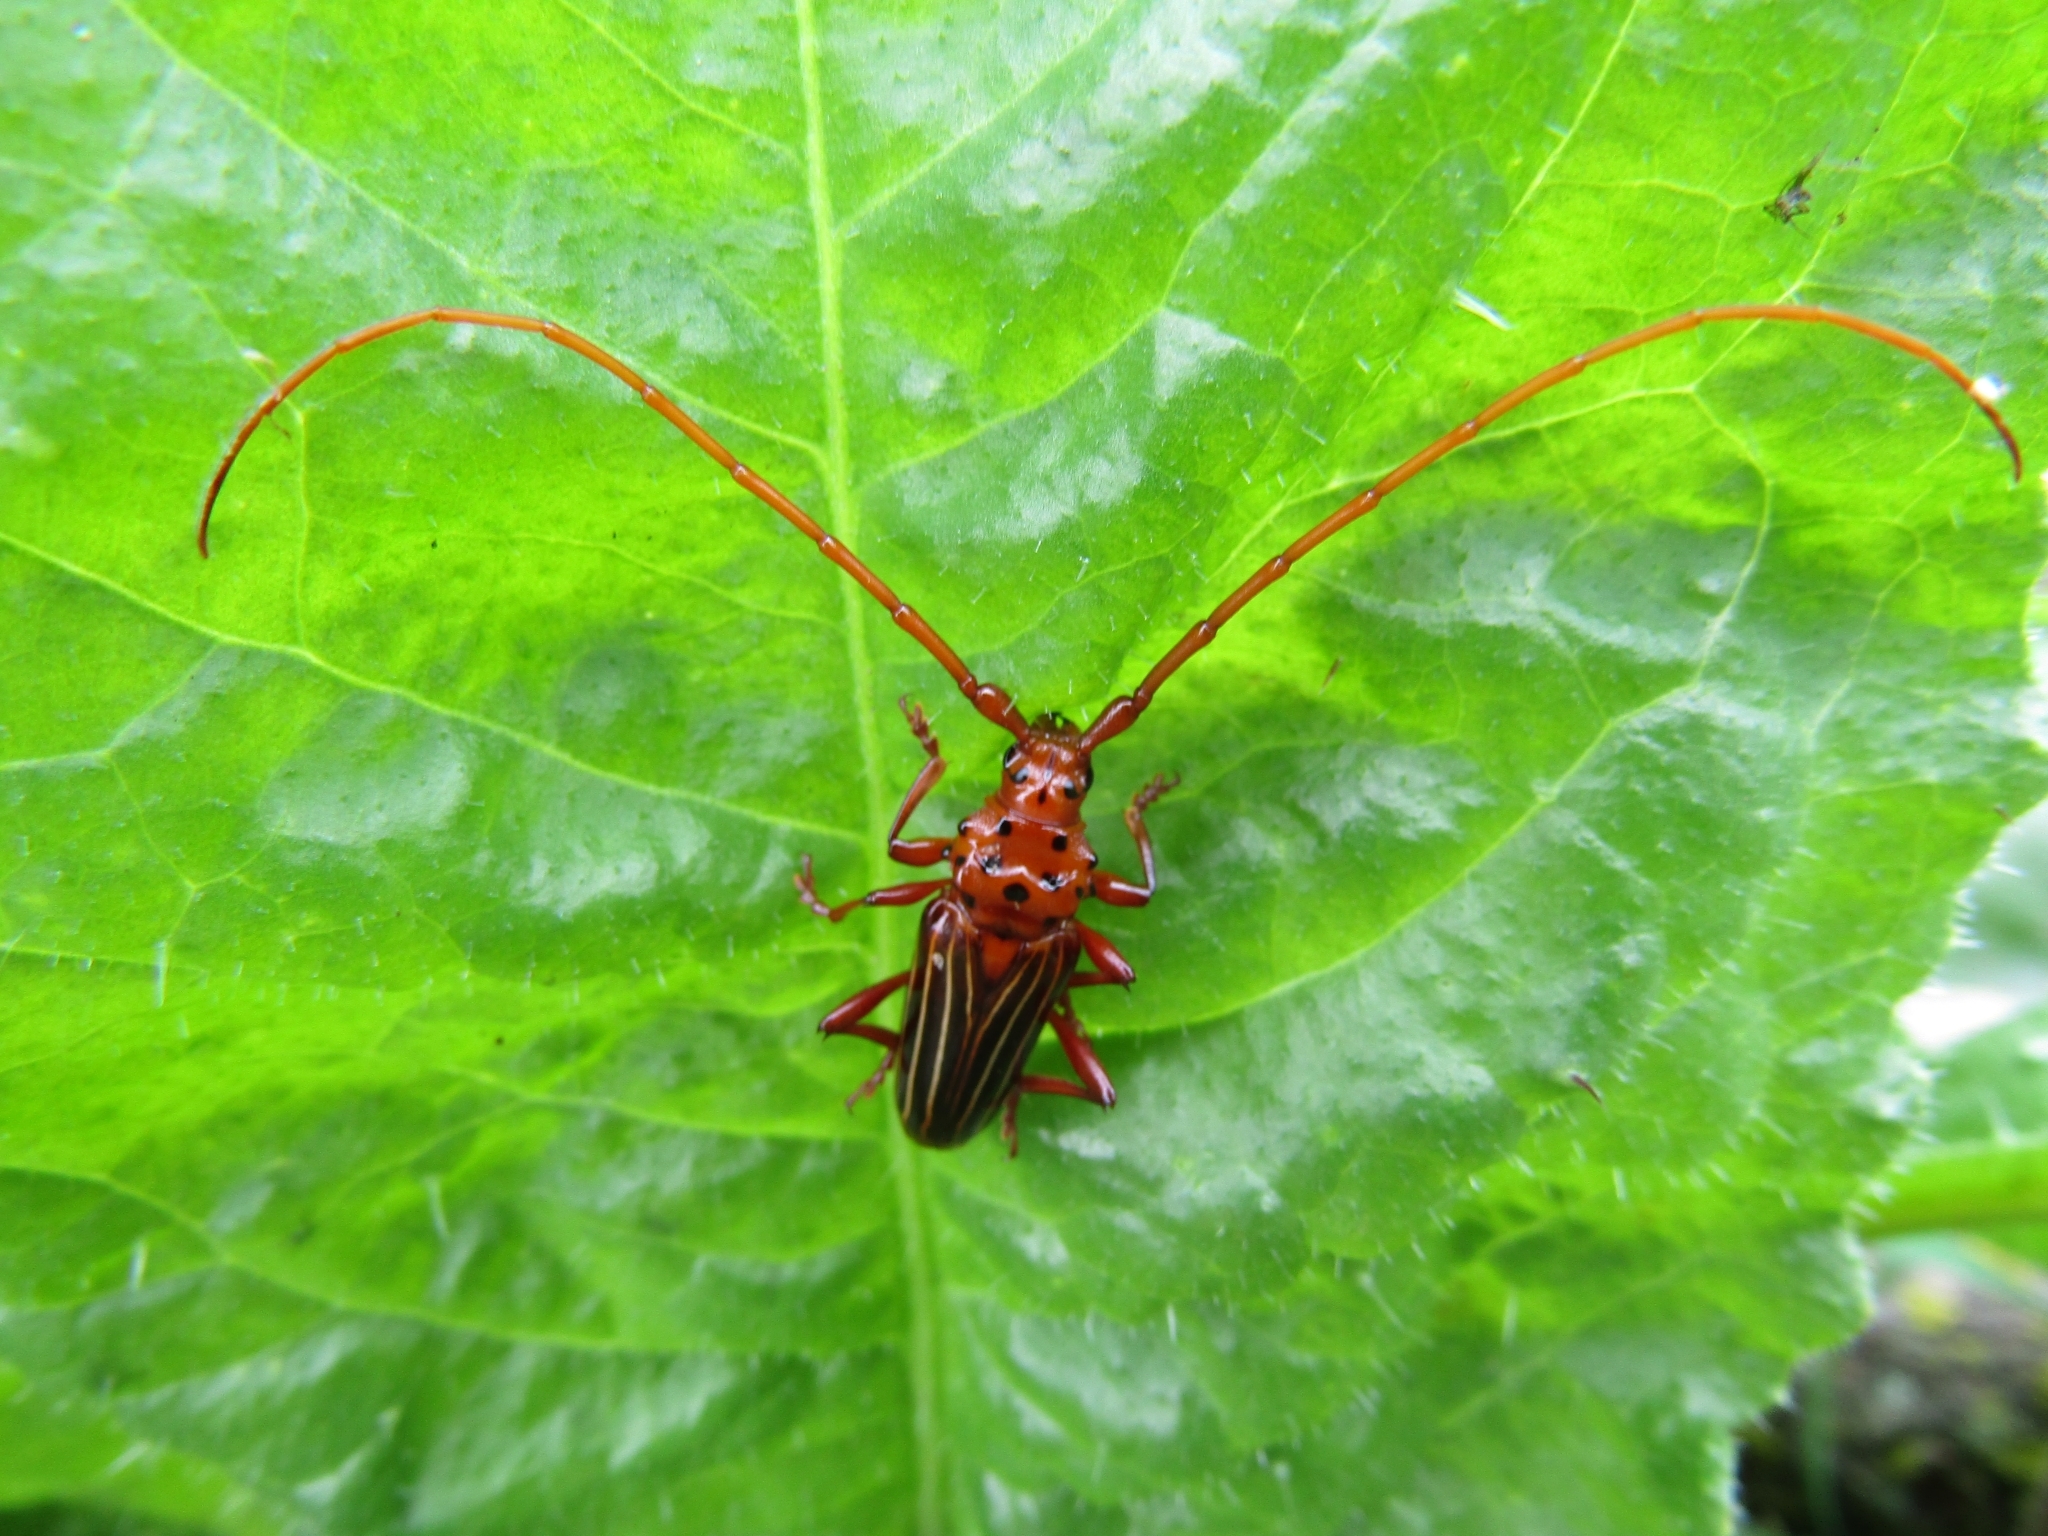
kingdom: Animalia
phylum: Arthropoda
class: Insecta
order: Coleoptera
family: Cerambycidae
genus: Chydarteres
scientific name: Chydarteres striatus
